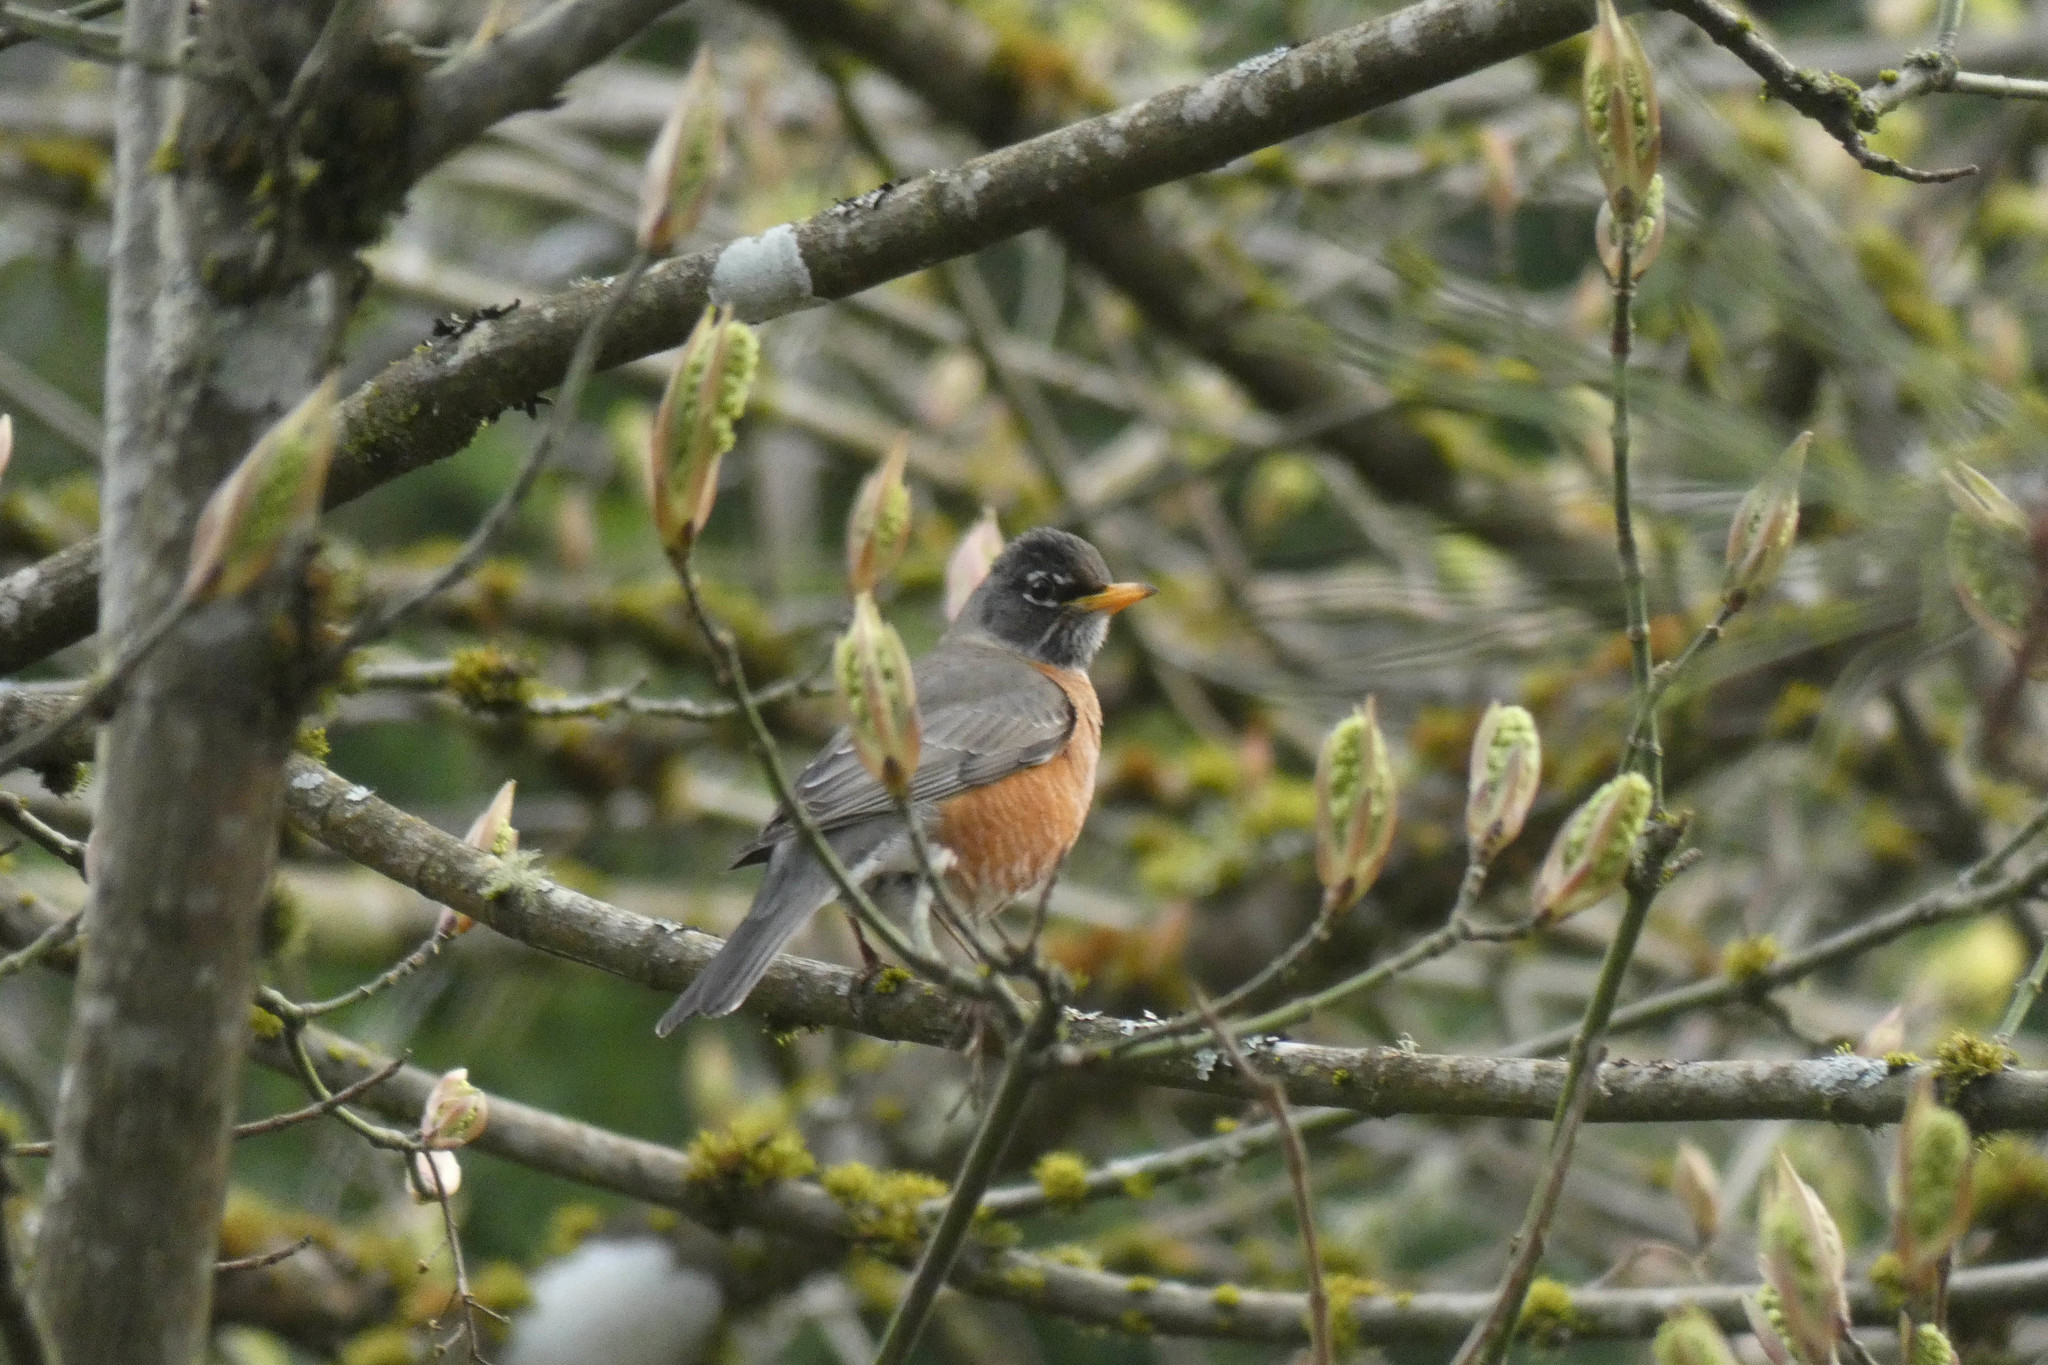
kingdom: Animalia
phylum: Chordata
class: Aves
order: Passeriformes
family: Turdidae
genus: Turdus
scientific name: Turdus migratorius
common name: American robin
